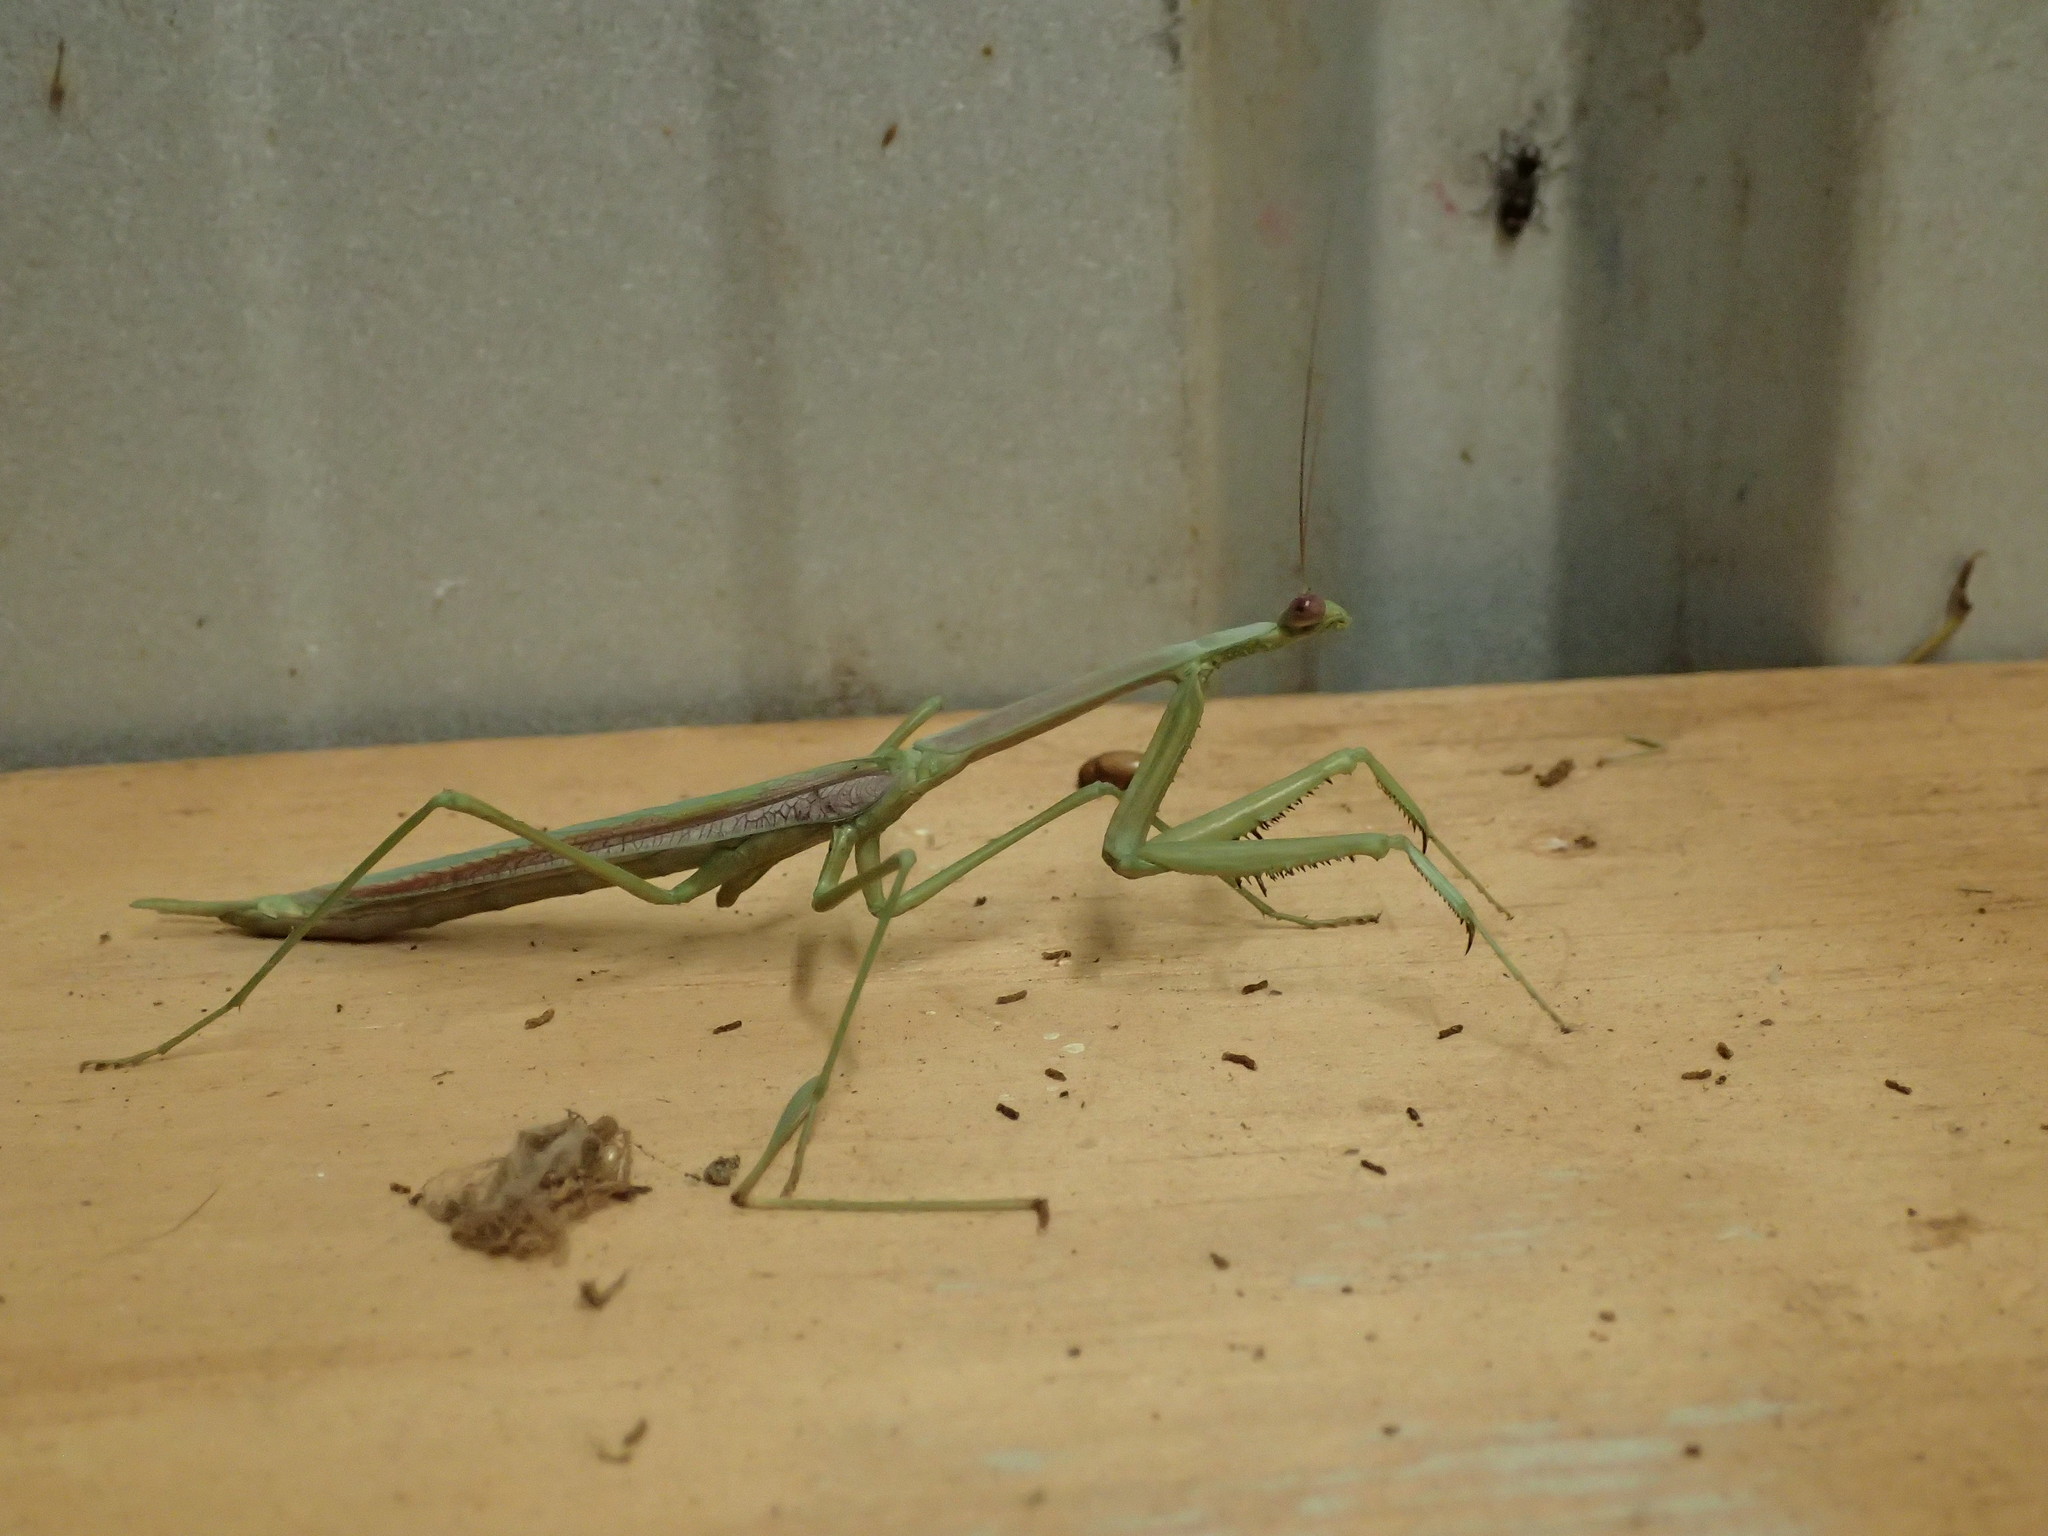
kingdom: Animalia
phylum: Arthropoda
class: Insecta
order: Mantodea
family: Mantidae
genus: Archimantis
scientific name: Archimantis sobrina
